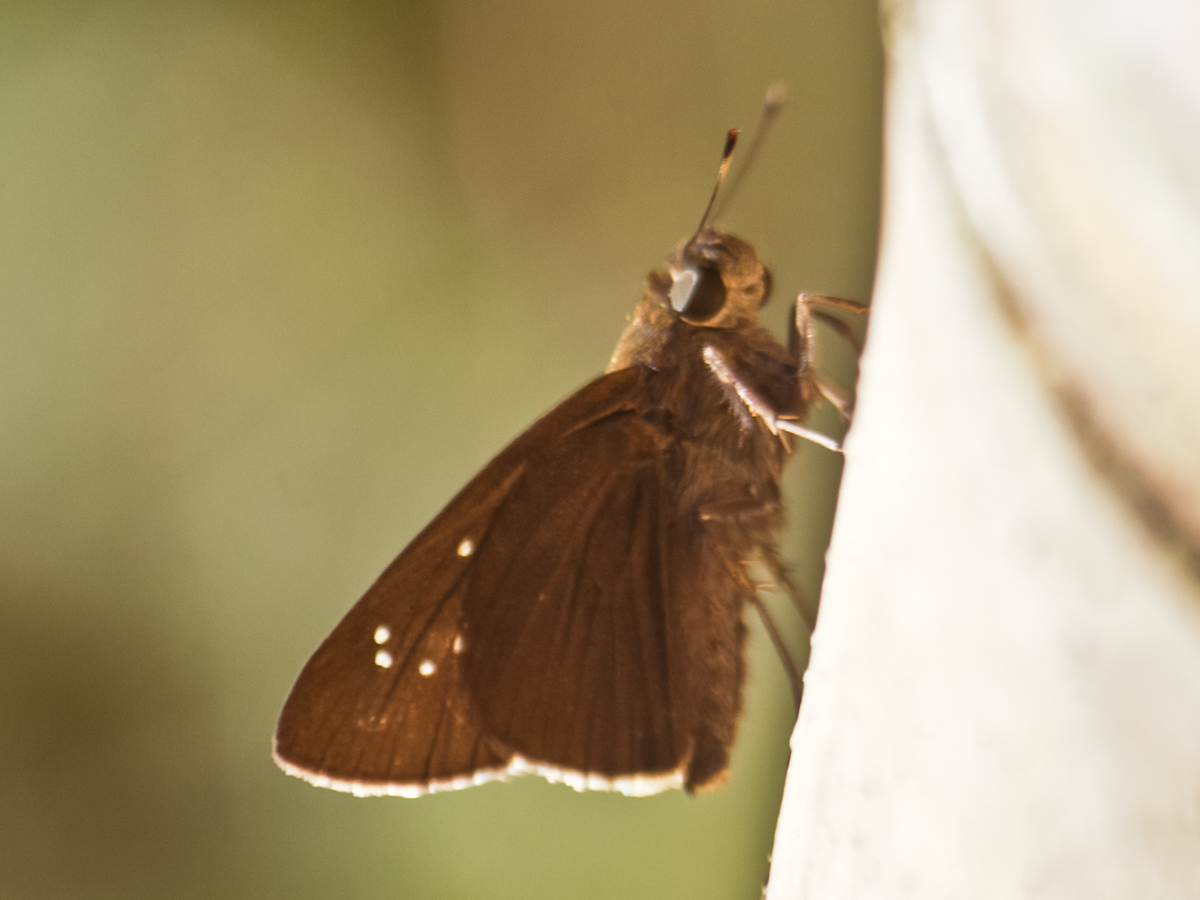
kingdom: Animalia
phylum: Arthropoda
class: Insecta
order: Lepidoptera
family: Hesperiidae
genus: Baoris
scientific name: Baoris farri
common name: Paintbrush swift
